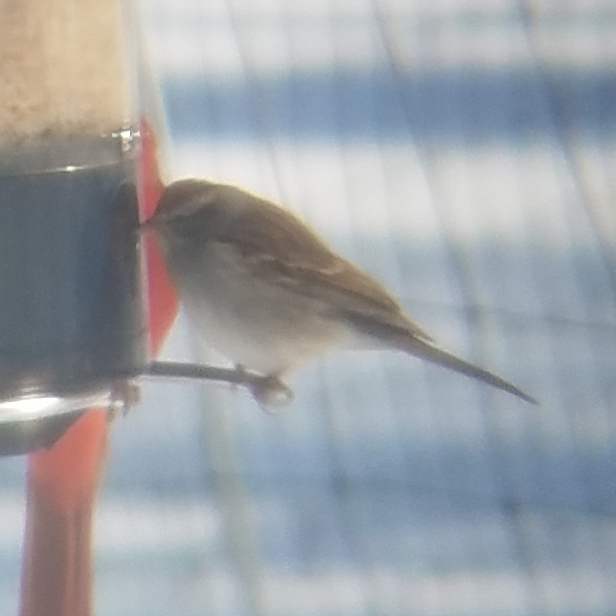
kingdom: Animalia
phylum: Chordata
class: Aves
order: Passeriformes
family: Passerellidae
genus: Spizella
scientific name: Spizella passerina
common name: Chipping sparrow
